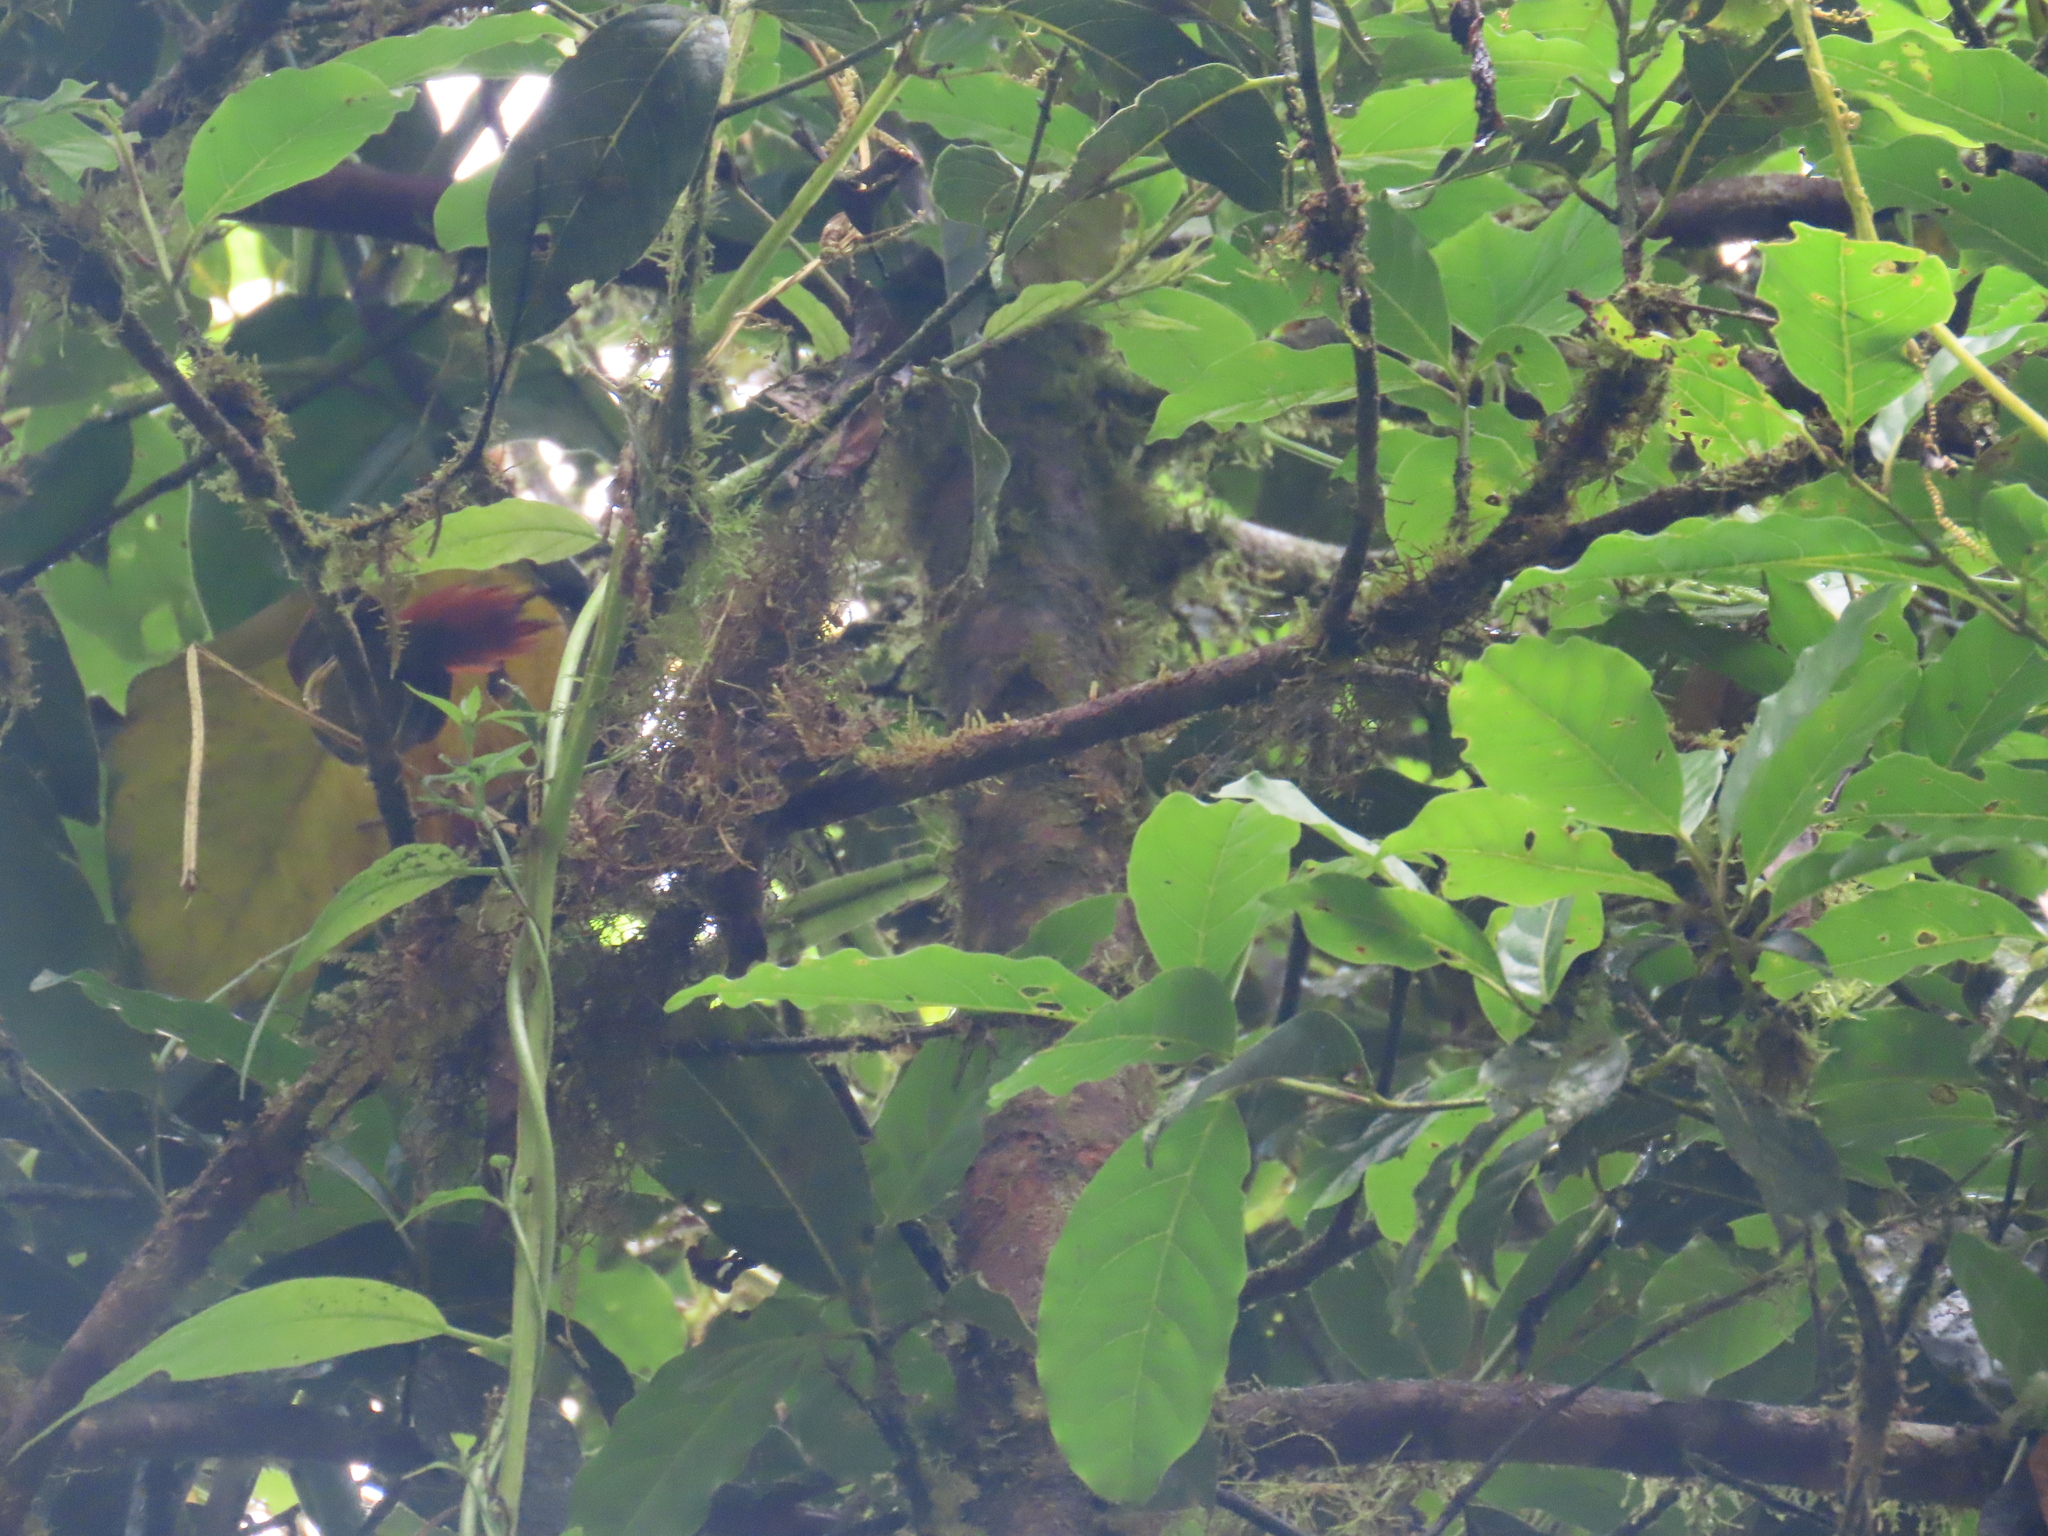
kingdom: Animalia
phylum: Chordata
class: Aves
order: Passeriformes
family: Furnariidae
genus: Cranioleuca
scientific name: Cranioleuca erythrops
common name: Red-faced spinetail
